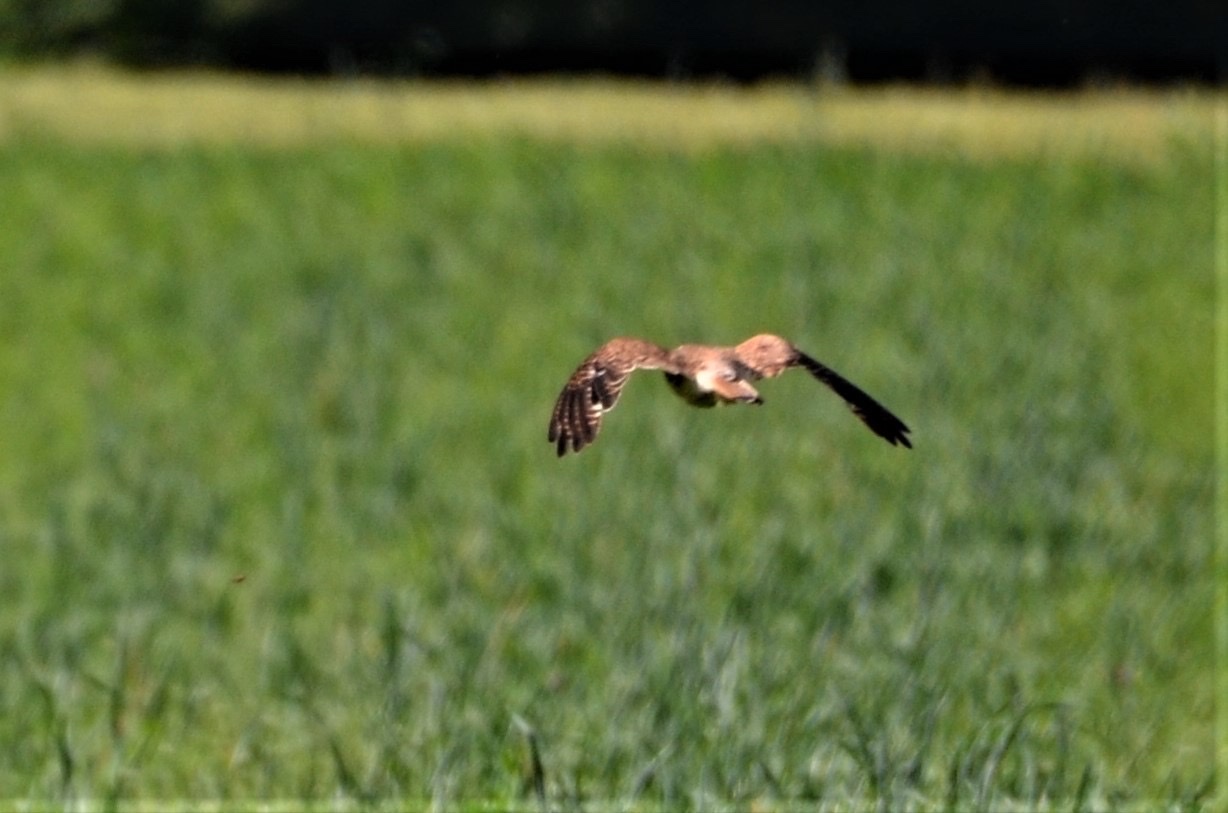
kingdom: Animalia
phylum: Chordata
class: Aves
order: Falconiformes
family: Falconidae
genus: Falco
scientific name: Falco tinnunculus
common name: Common kestrel
